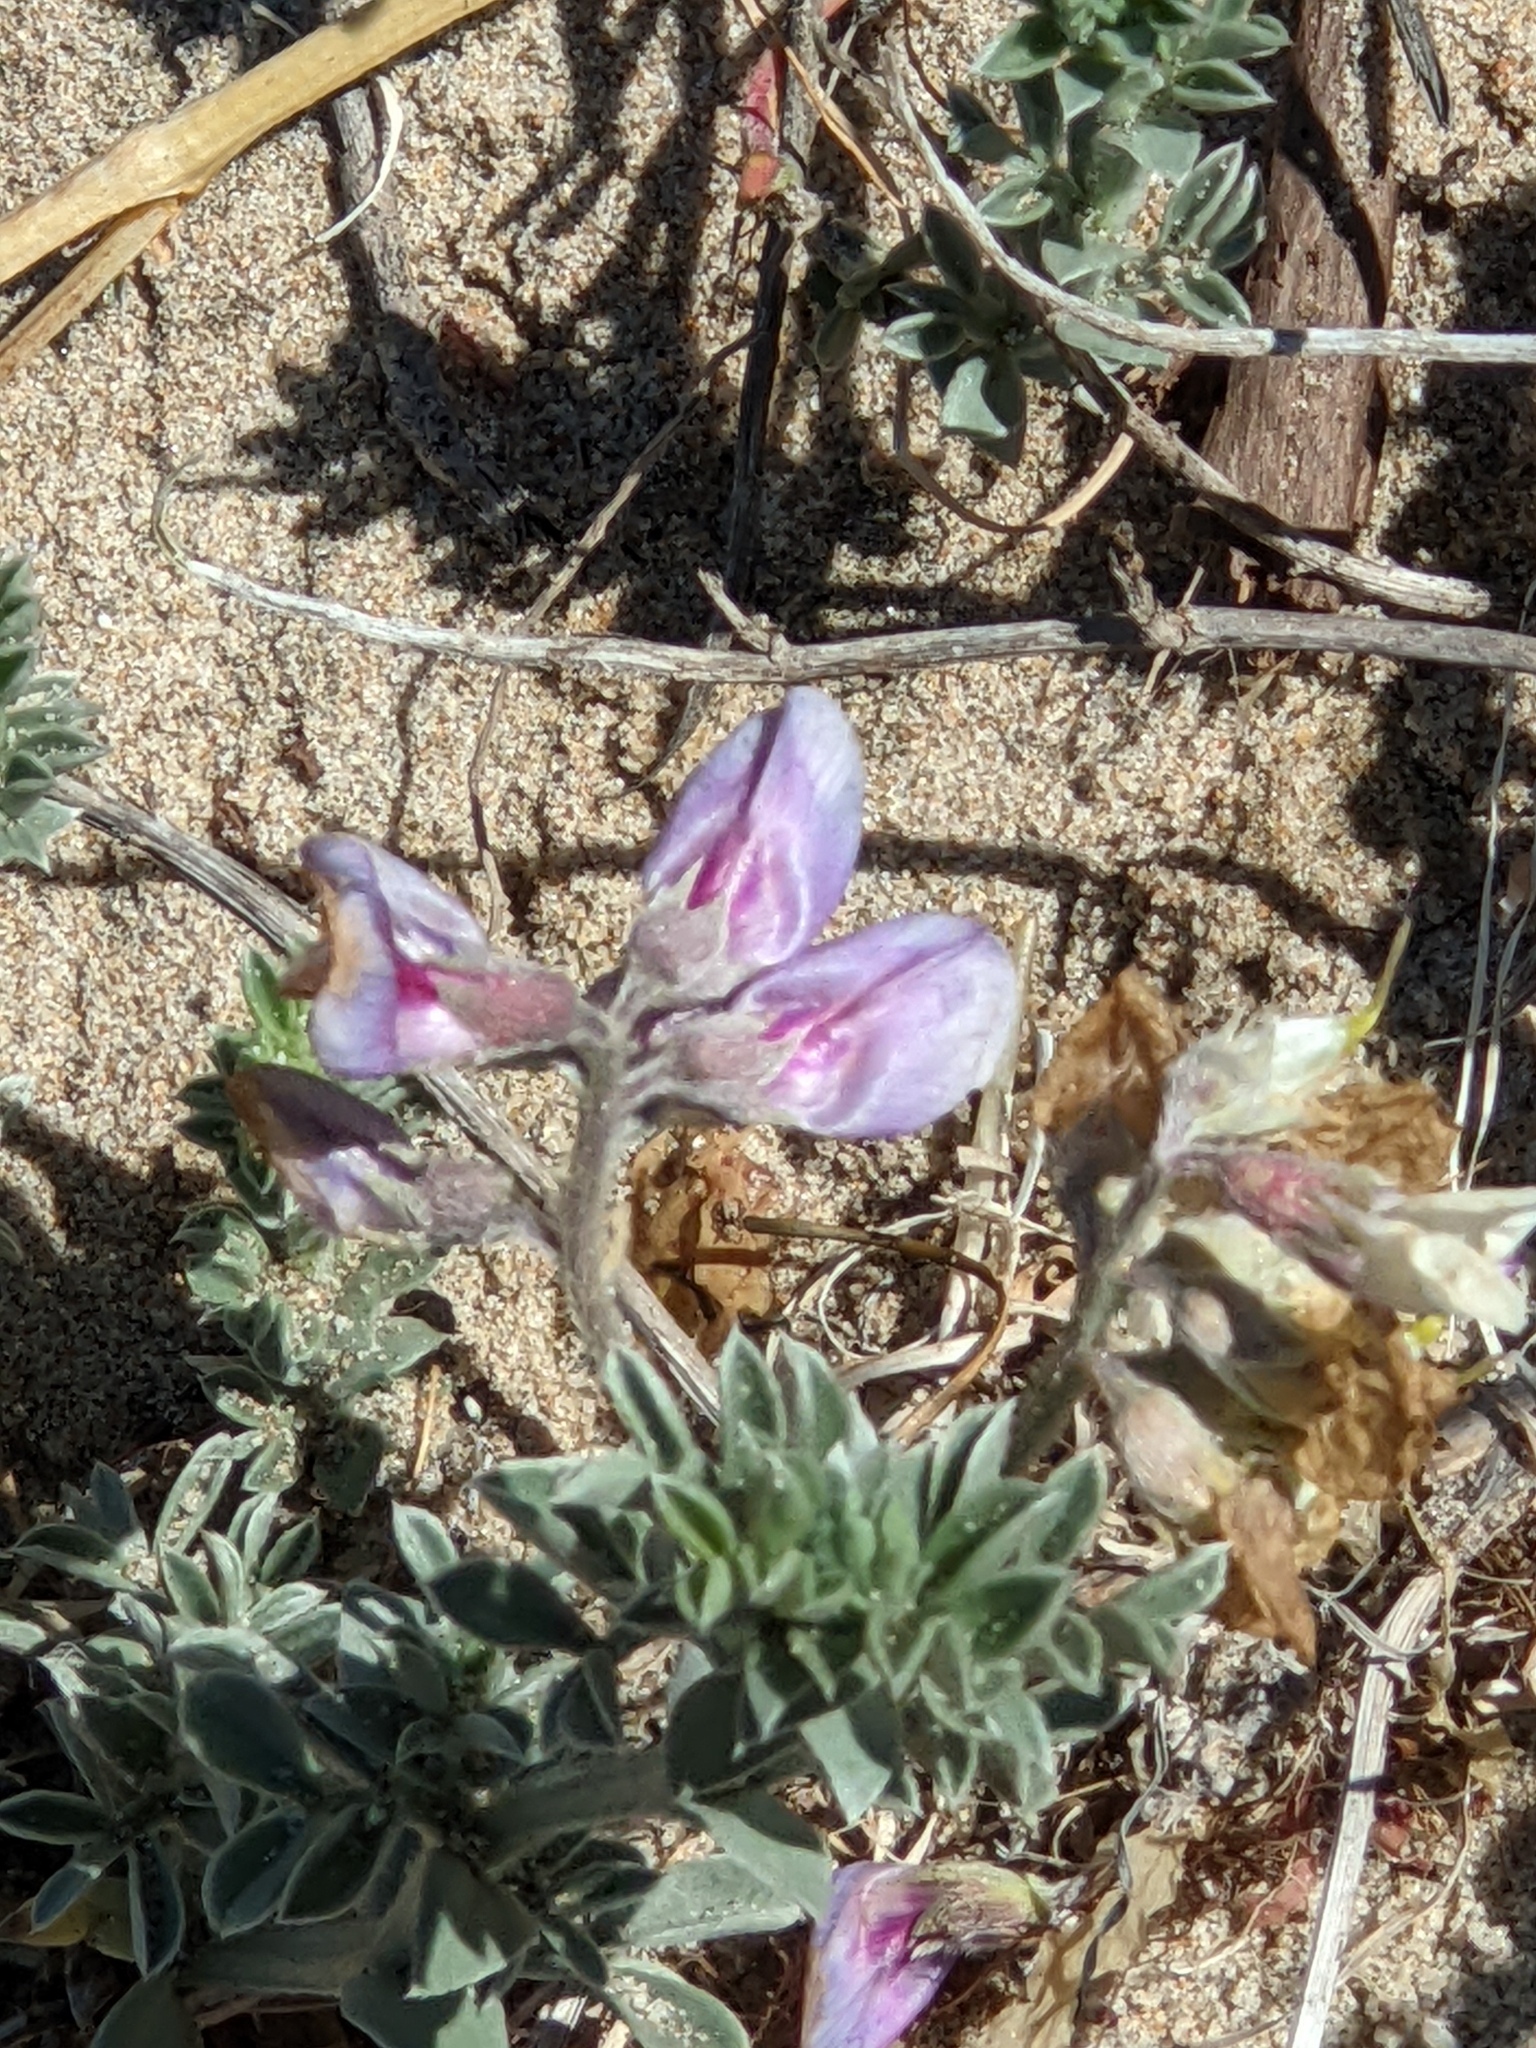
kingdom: Plantae
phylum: Tracheophyta
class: Magnoliopsida
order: Fabales
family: Fabaceae
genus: Lathyrus
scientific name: Lathyrus littoralis
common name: Dune sweet pea
